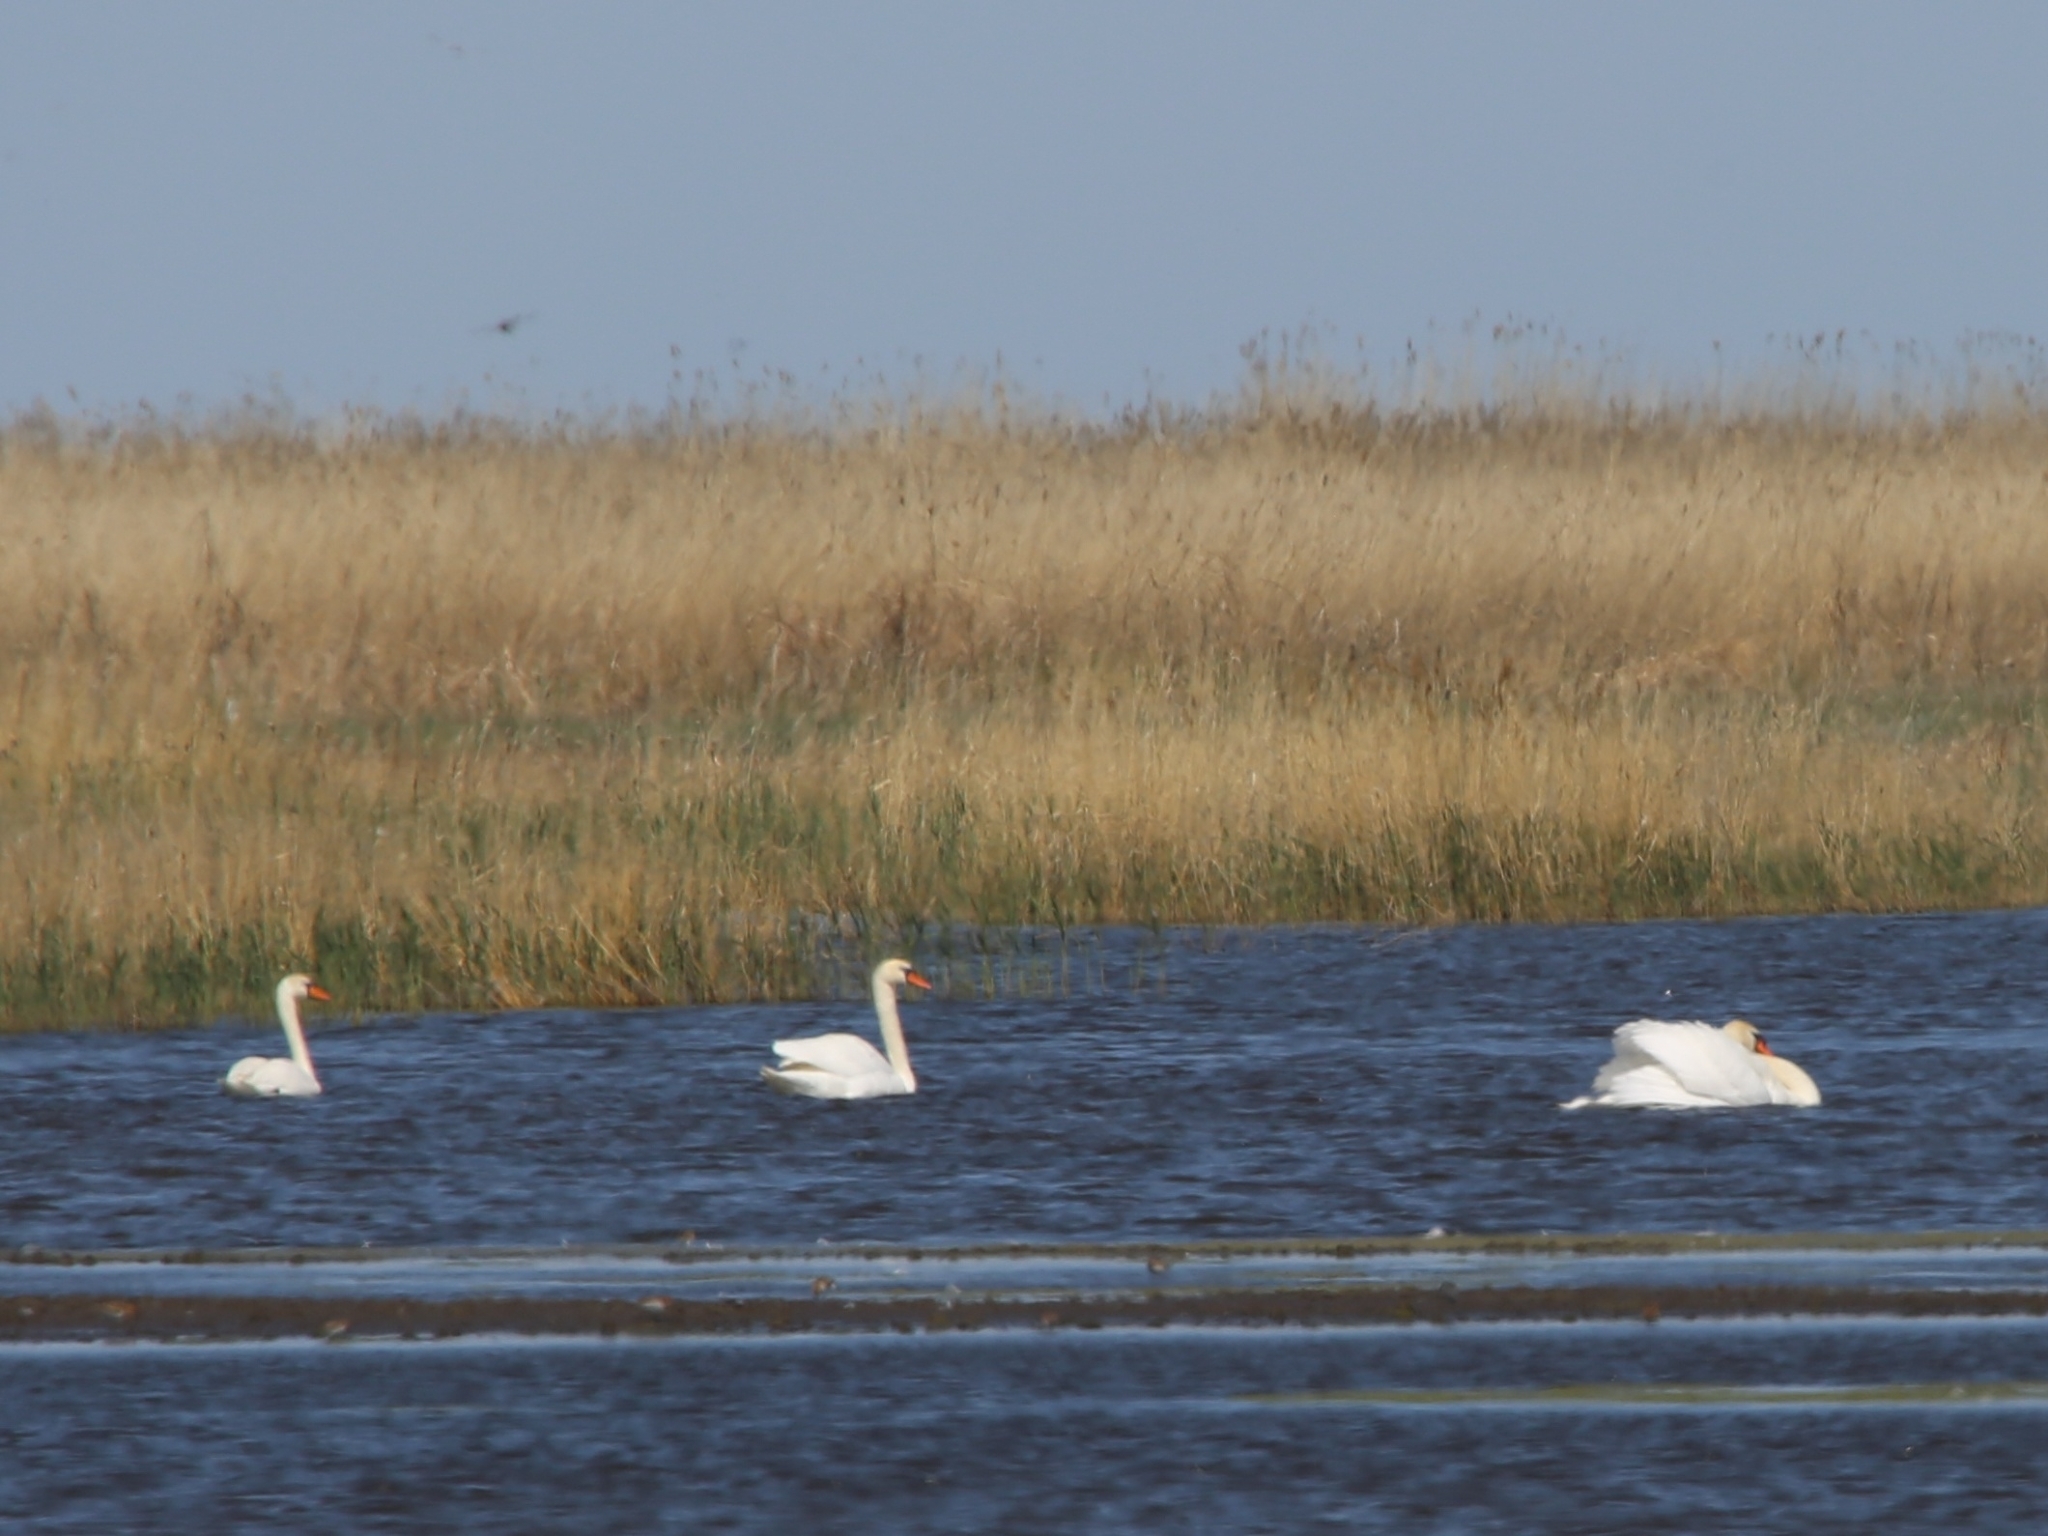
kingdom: Animalia
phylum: Chordata
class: Aves
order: Anseriformes
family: Anatidae
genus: Cygnus
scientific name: Cygnus olor
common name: Mute swan
